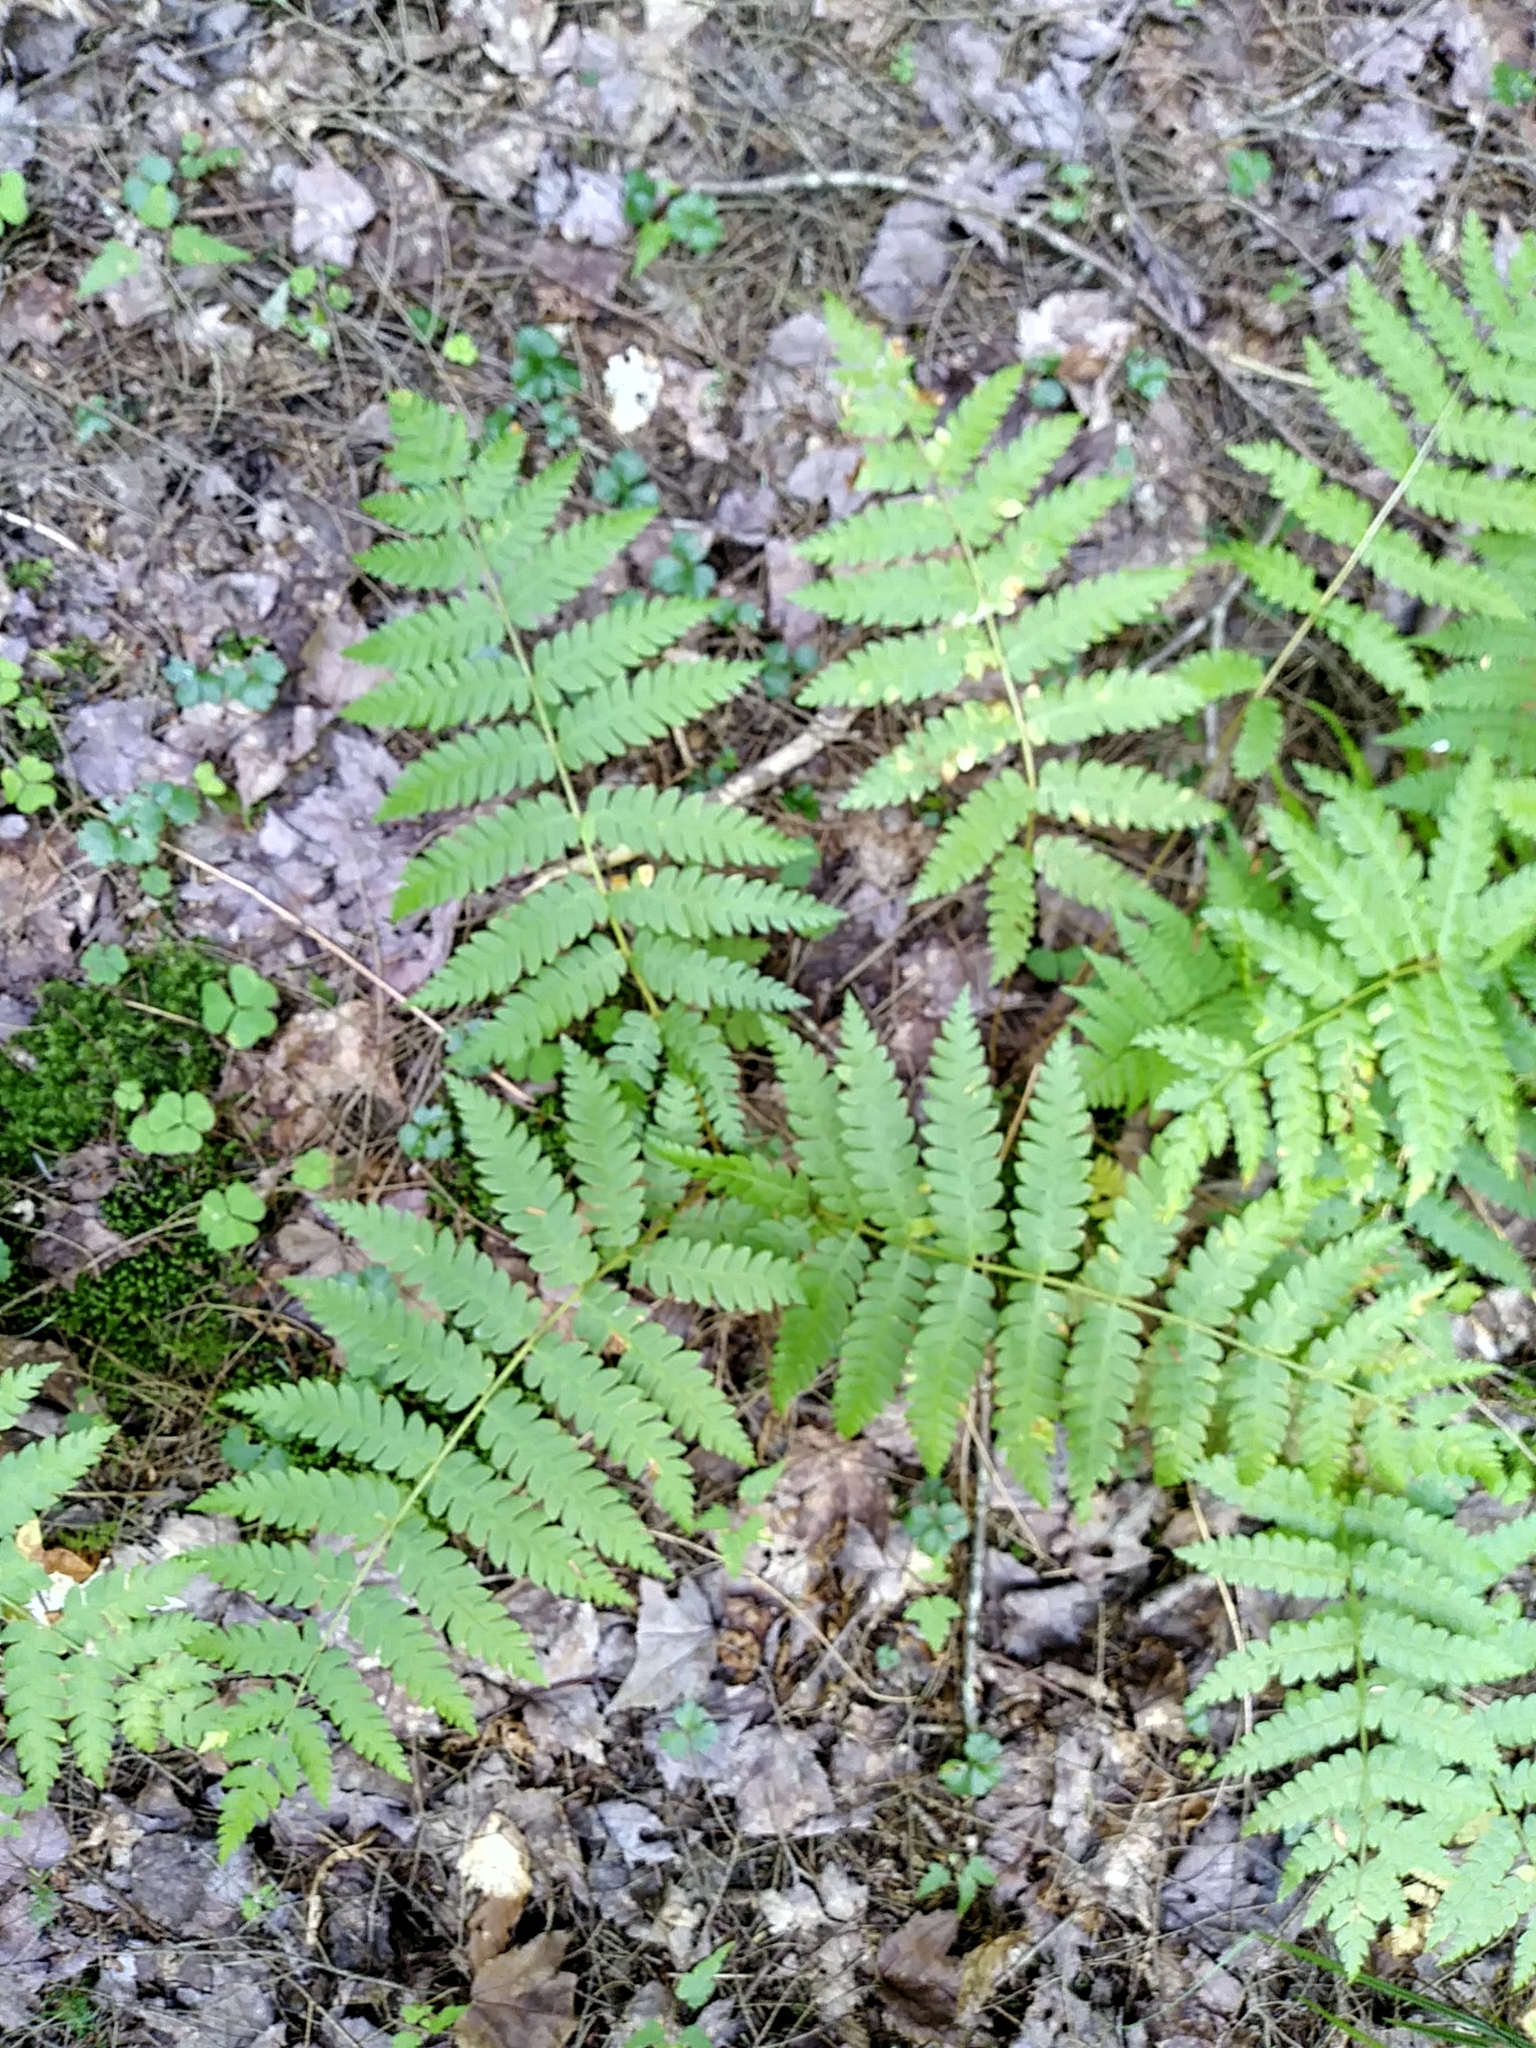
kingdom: Plantae
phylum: Tracheophyta
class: Polypodiopsida
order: Osmundales
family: Osmundaceae
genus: Osmundastrum
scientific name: Osmundastrum cinnamomeum
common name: Cinnamon fern
